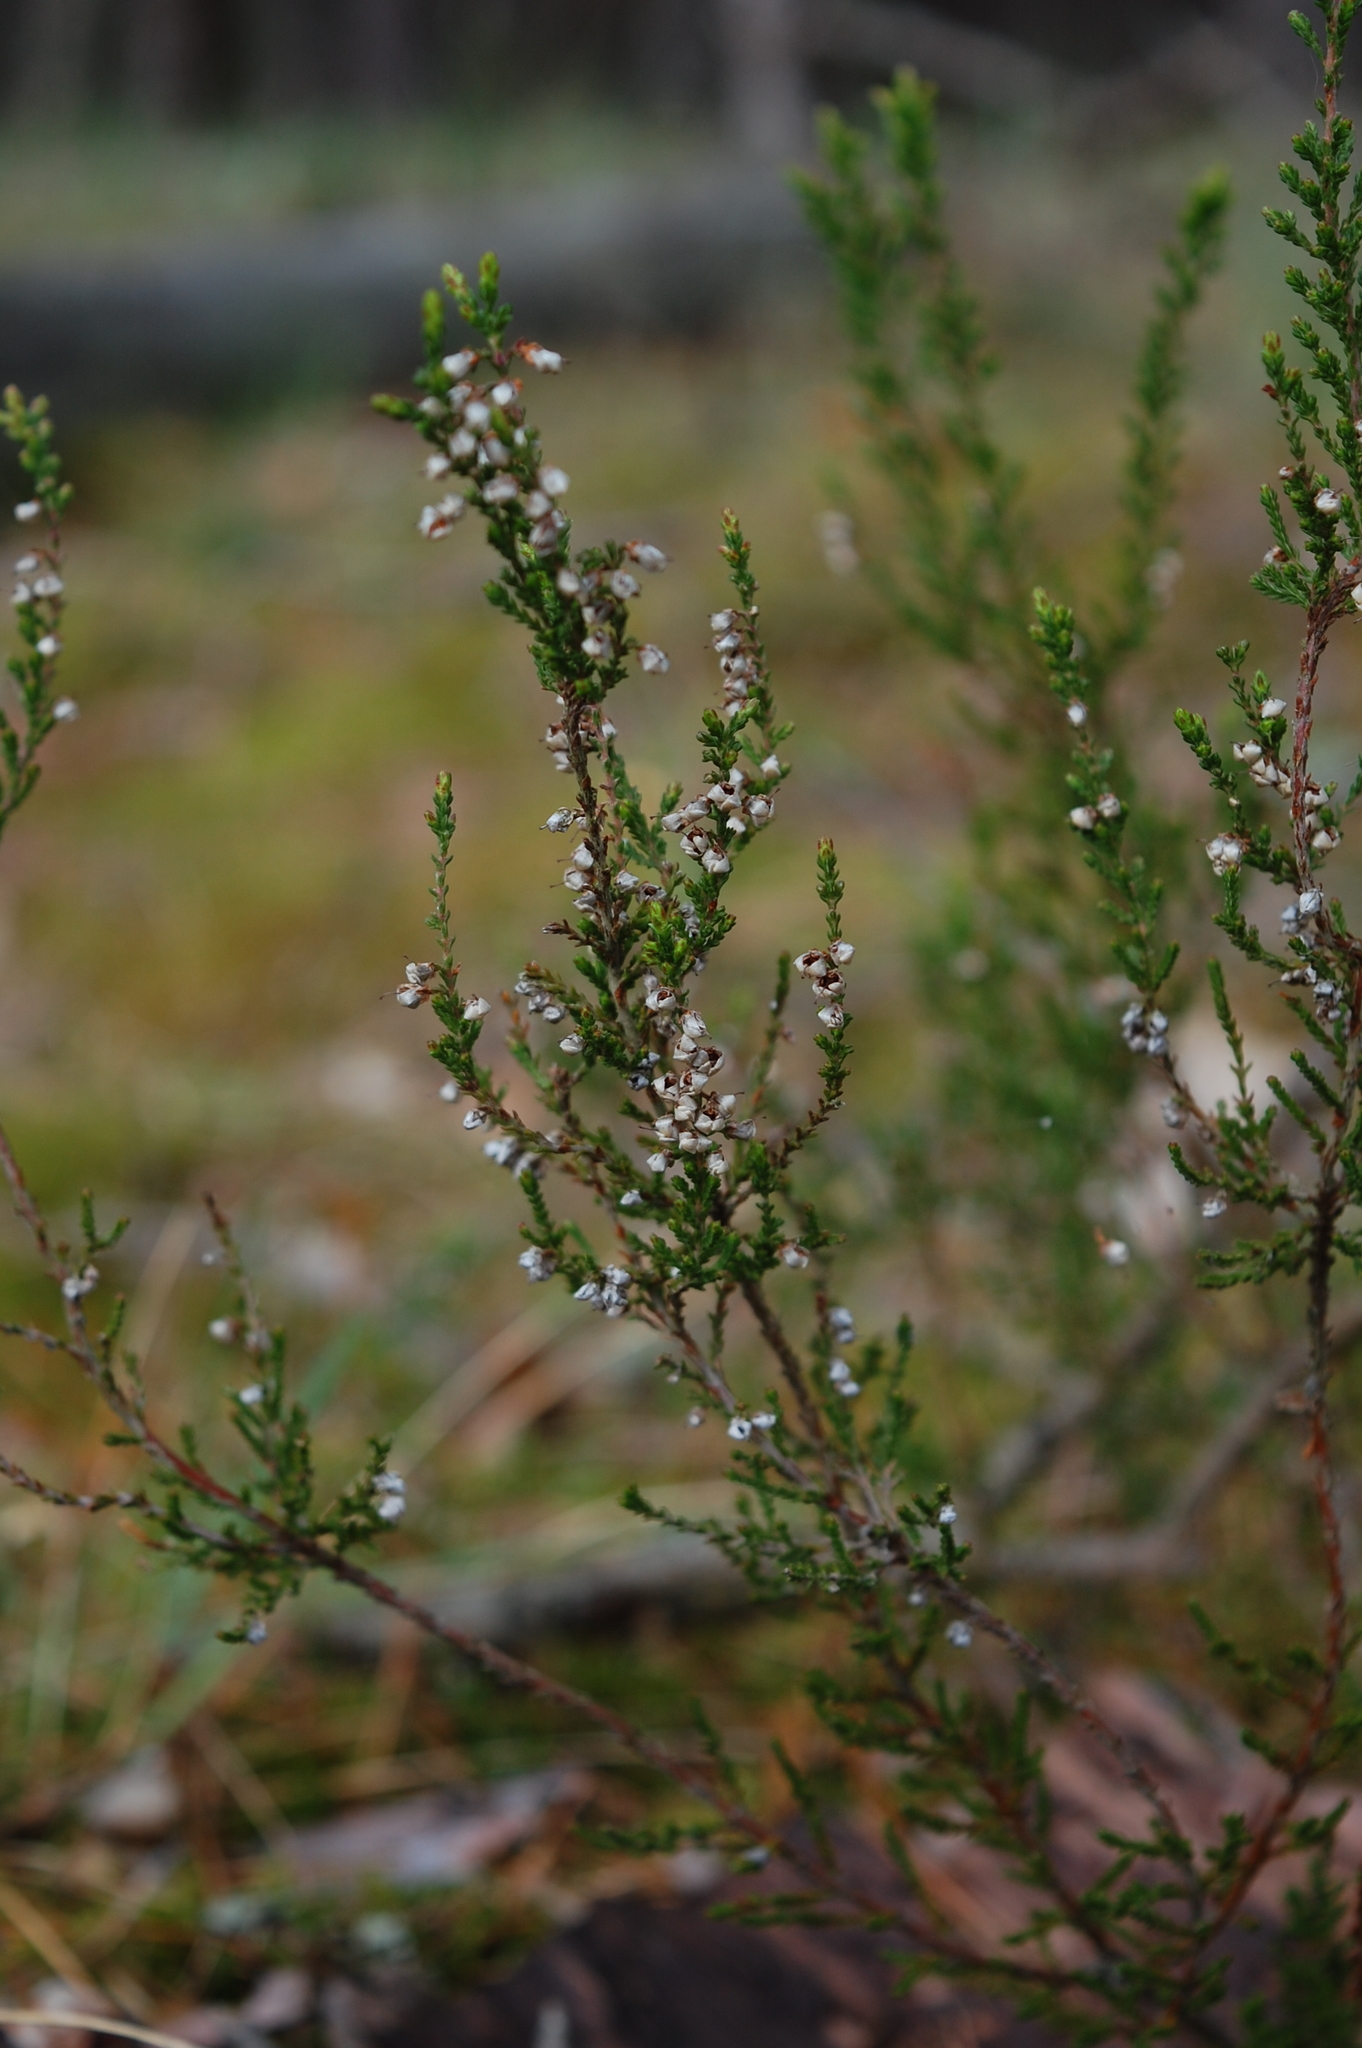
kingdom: Plantae
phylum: Tracheophyta
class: Magnoliopsida
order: Ericales
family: Ericaceae
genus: Calluna
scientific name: Calluna vulgaris
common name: Heather
